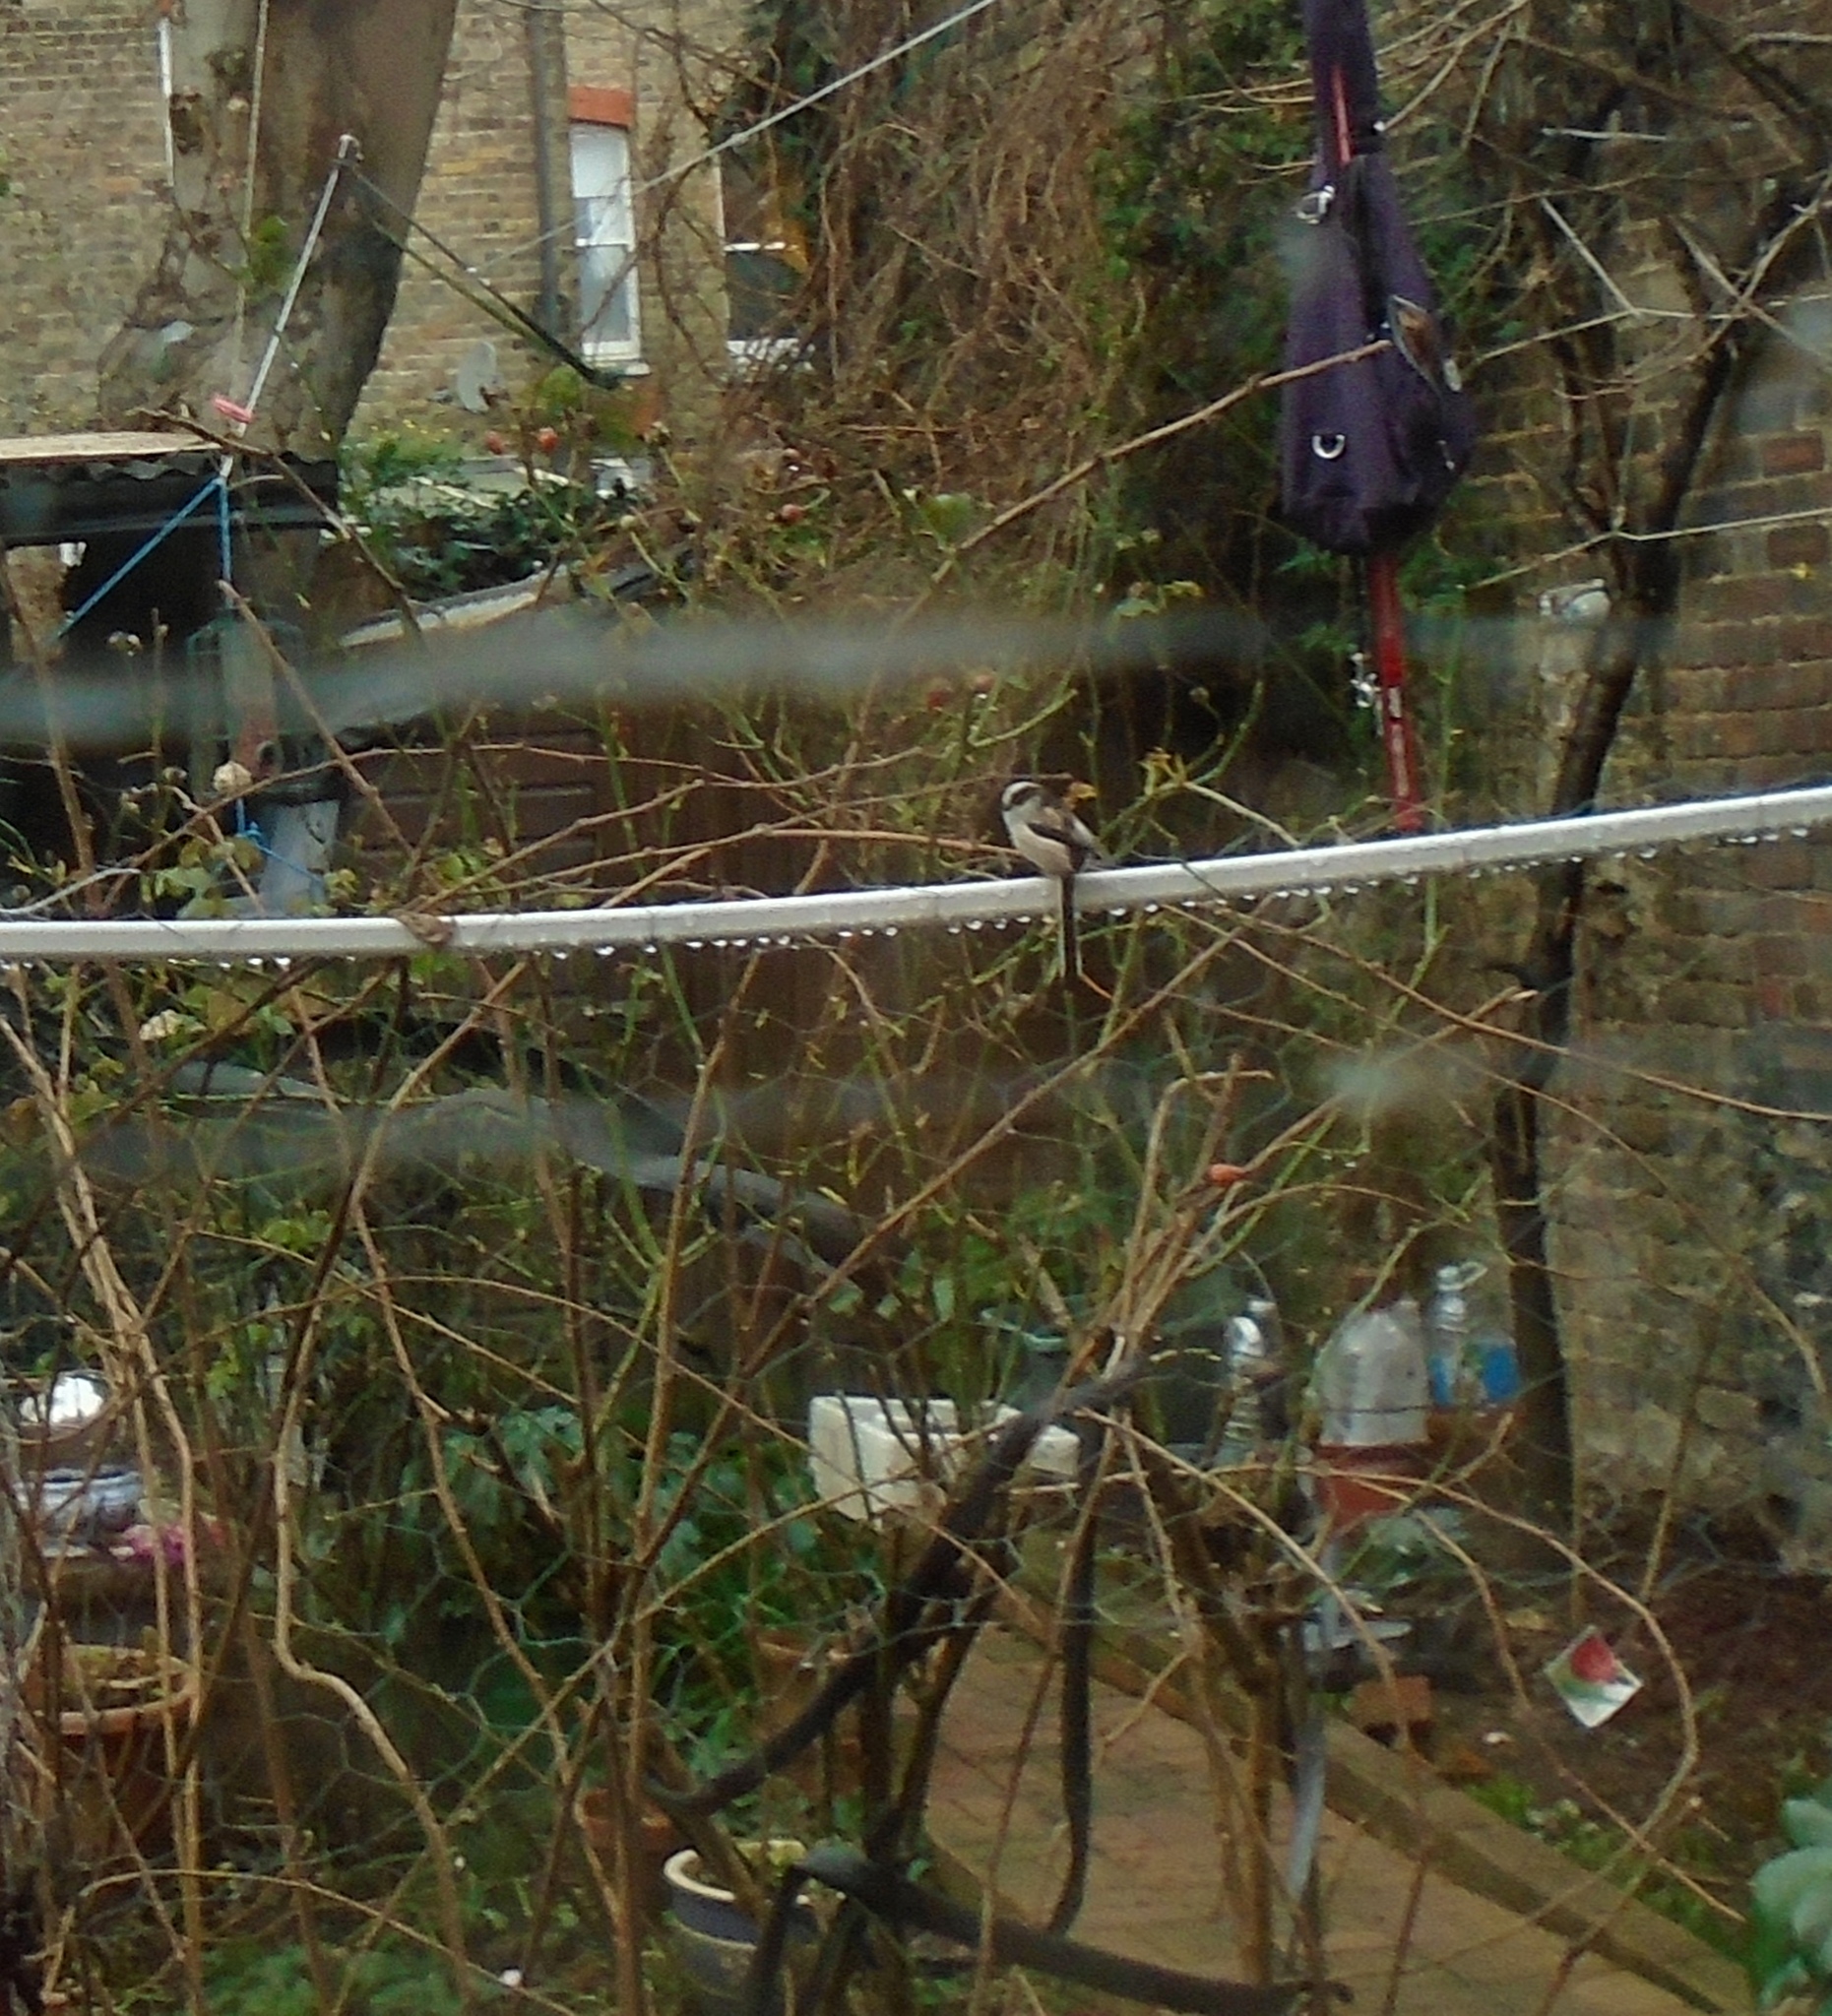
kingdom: Animalia
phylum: Chordata
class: Aves
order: Passeriformes
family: Aegithalidae
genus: Aegithalos
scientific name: Aegithalos caudatus
